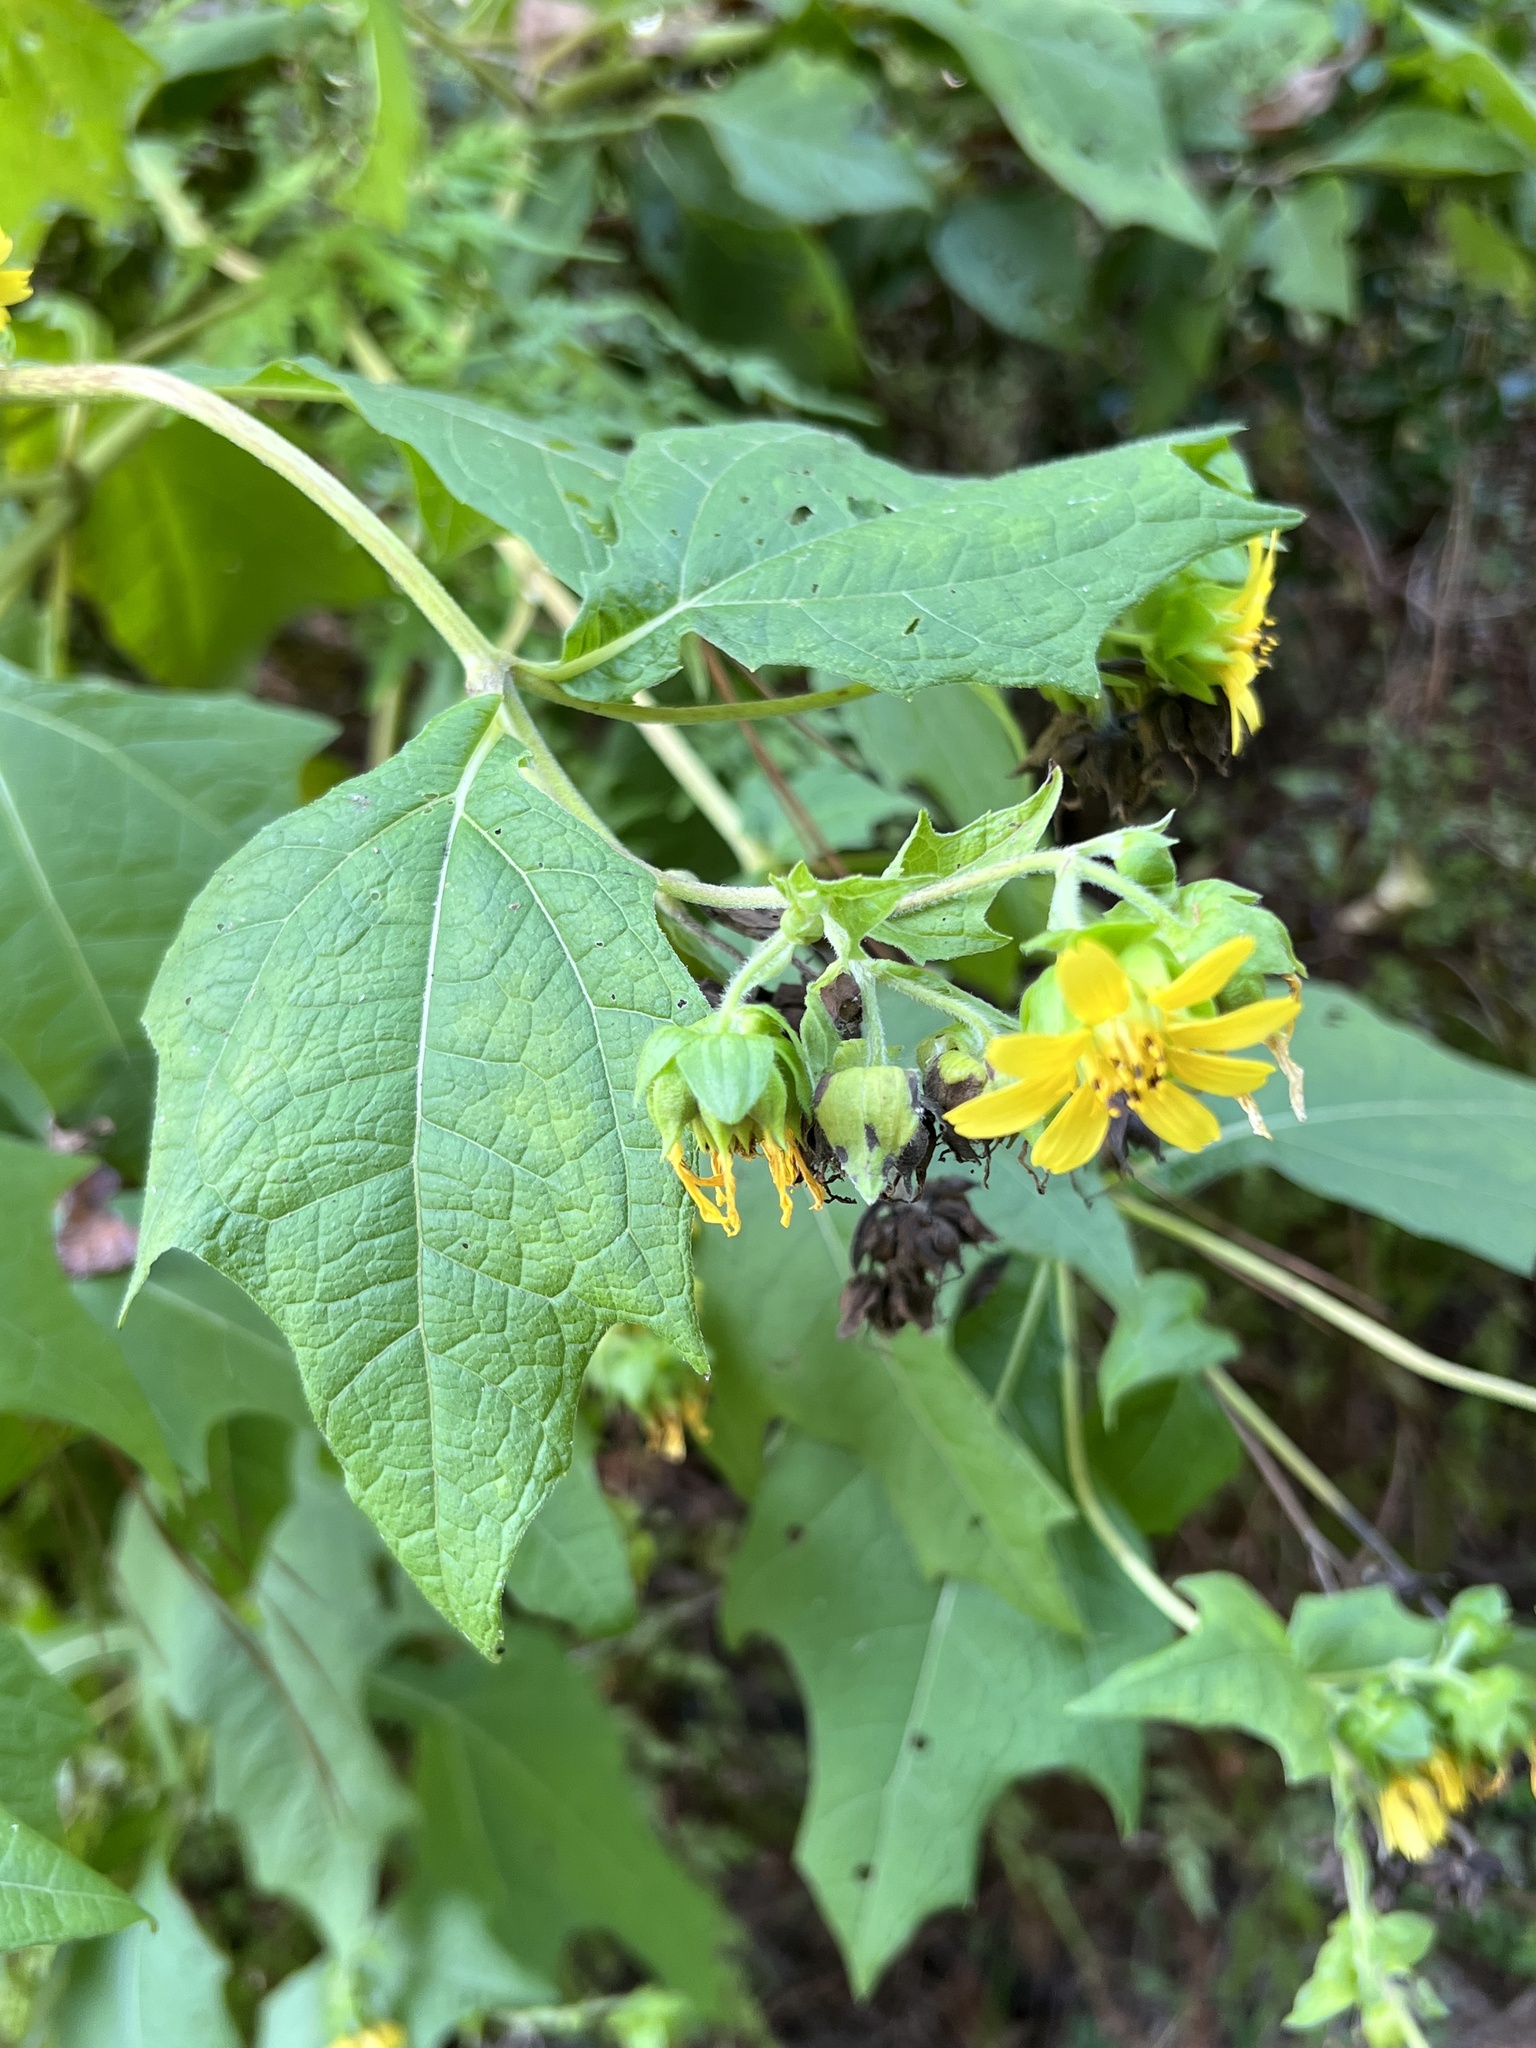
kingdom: Plantae
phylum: Tracheophyta
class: Magnoliopsida
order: Asterales
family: Asteraceae
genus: Smallanthus
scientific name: Smallanthus uvedalia
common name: Bear's-foot
